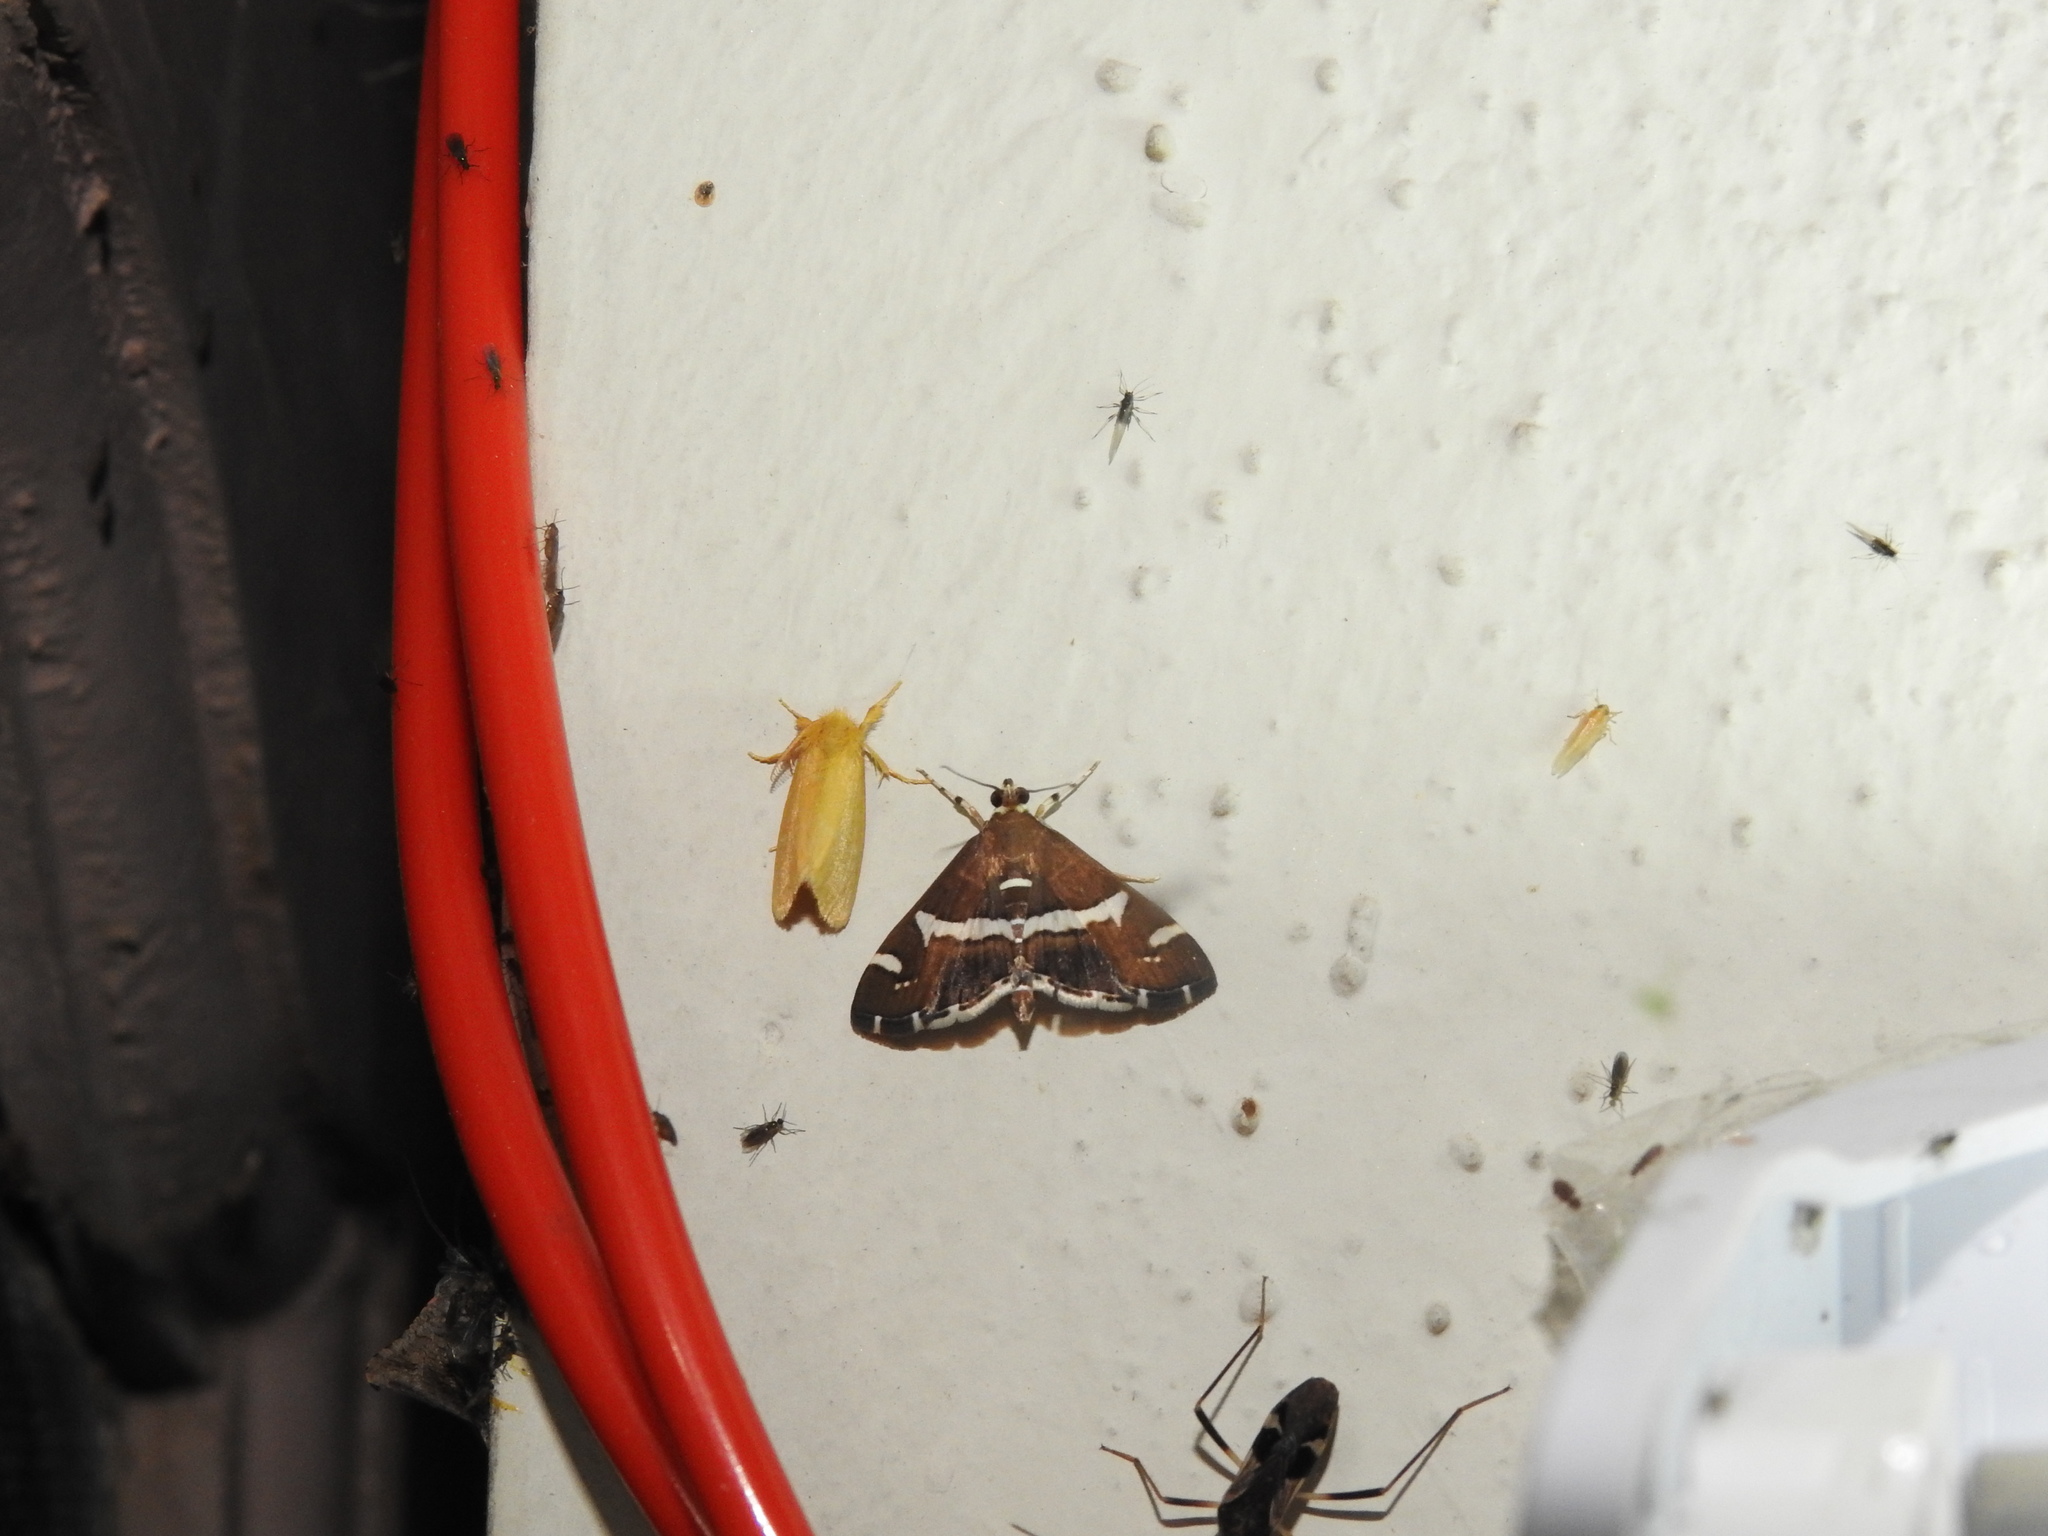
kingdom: Animalia
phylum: Arthropoda
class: Insecta
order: Lepidoptera
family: Crambidae
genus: Spoladea
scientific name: Spoladea recurvalis
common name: Beet webworm moth
